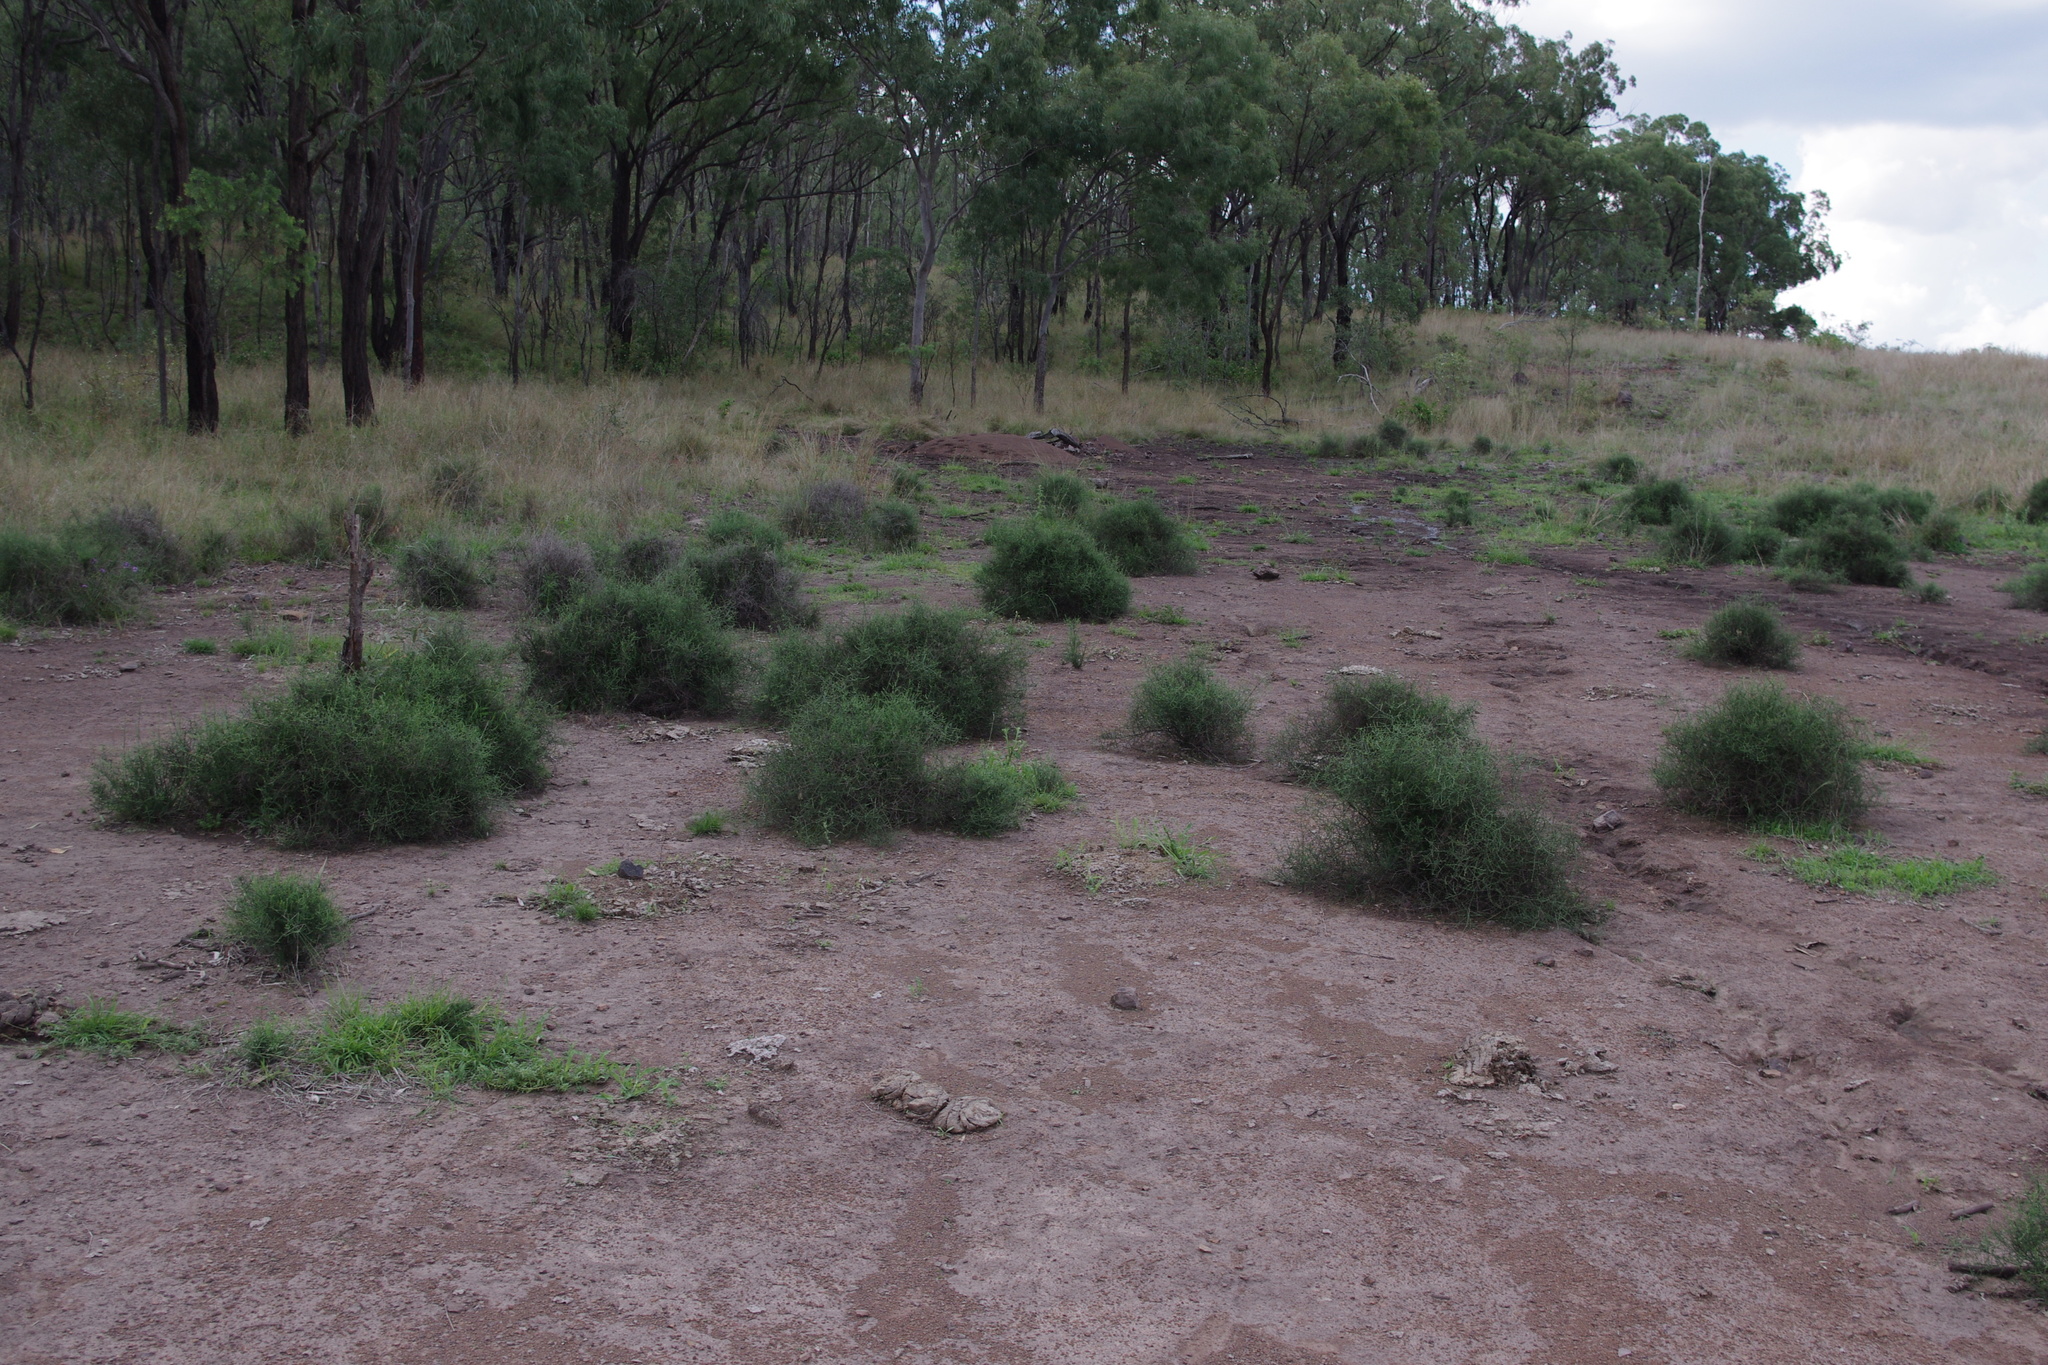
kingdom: Plantae
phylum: Tracheophyta
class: Magnoliopsida
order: Caryophyllales
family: Amaranthaceae
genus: Maireana
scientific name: Maireana microphylla
